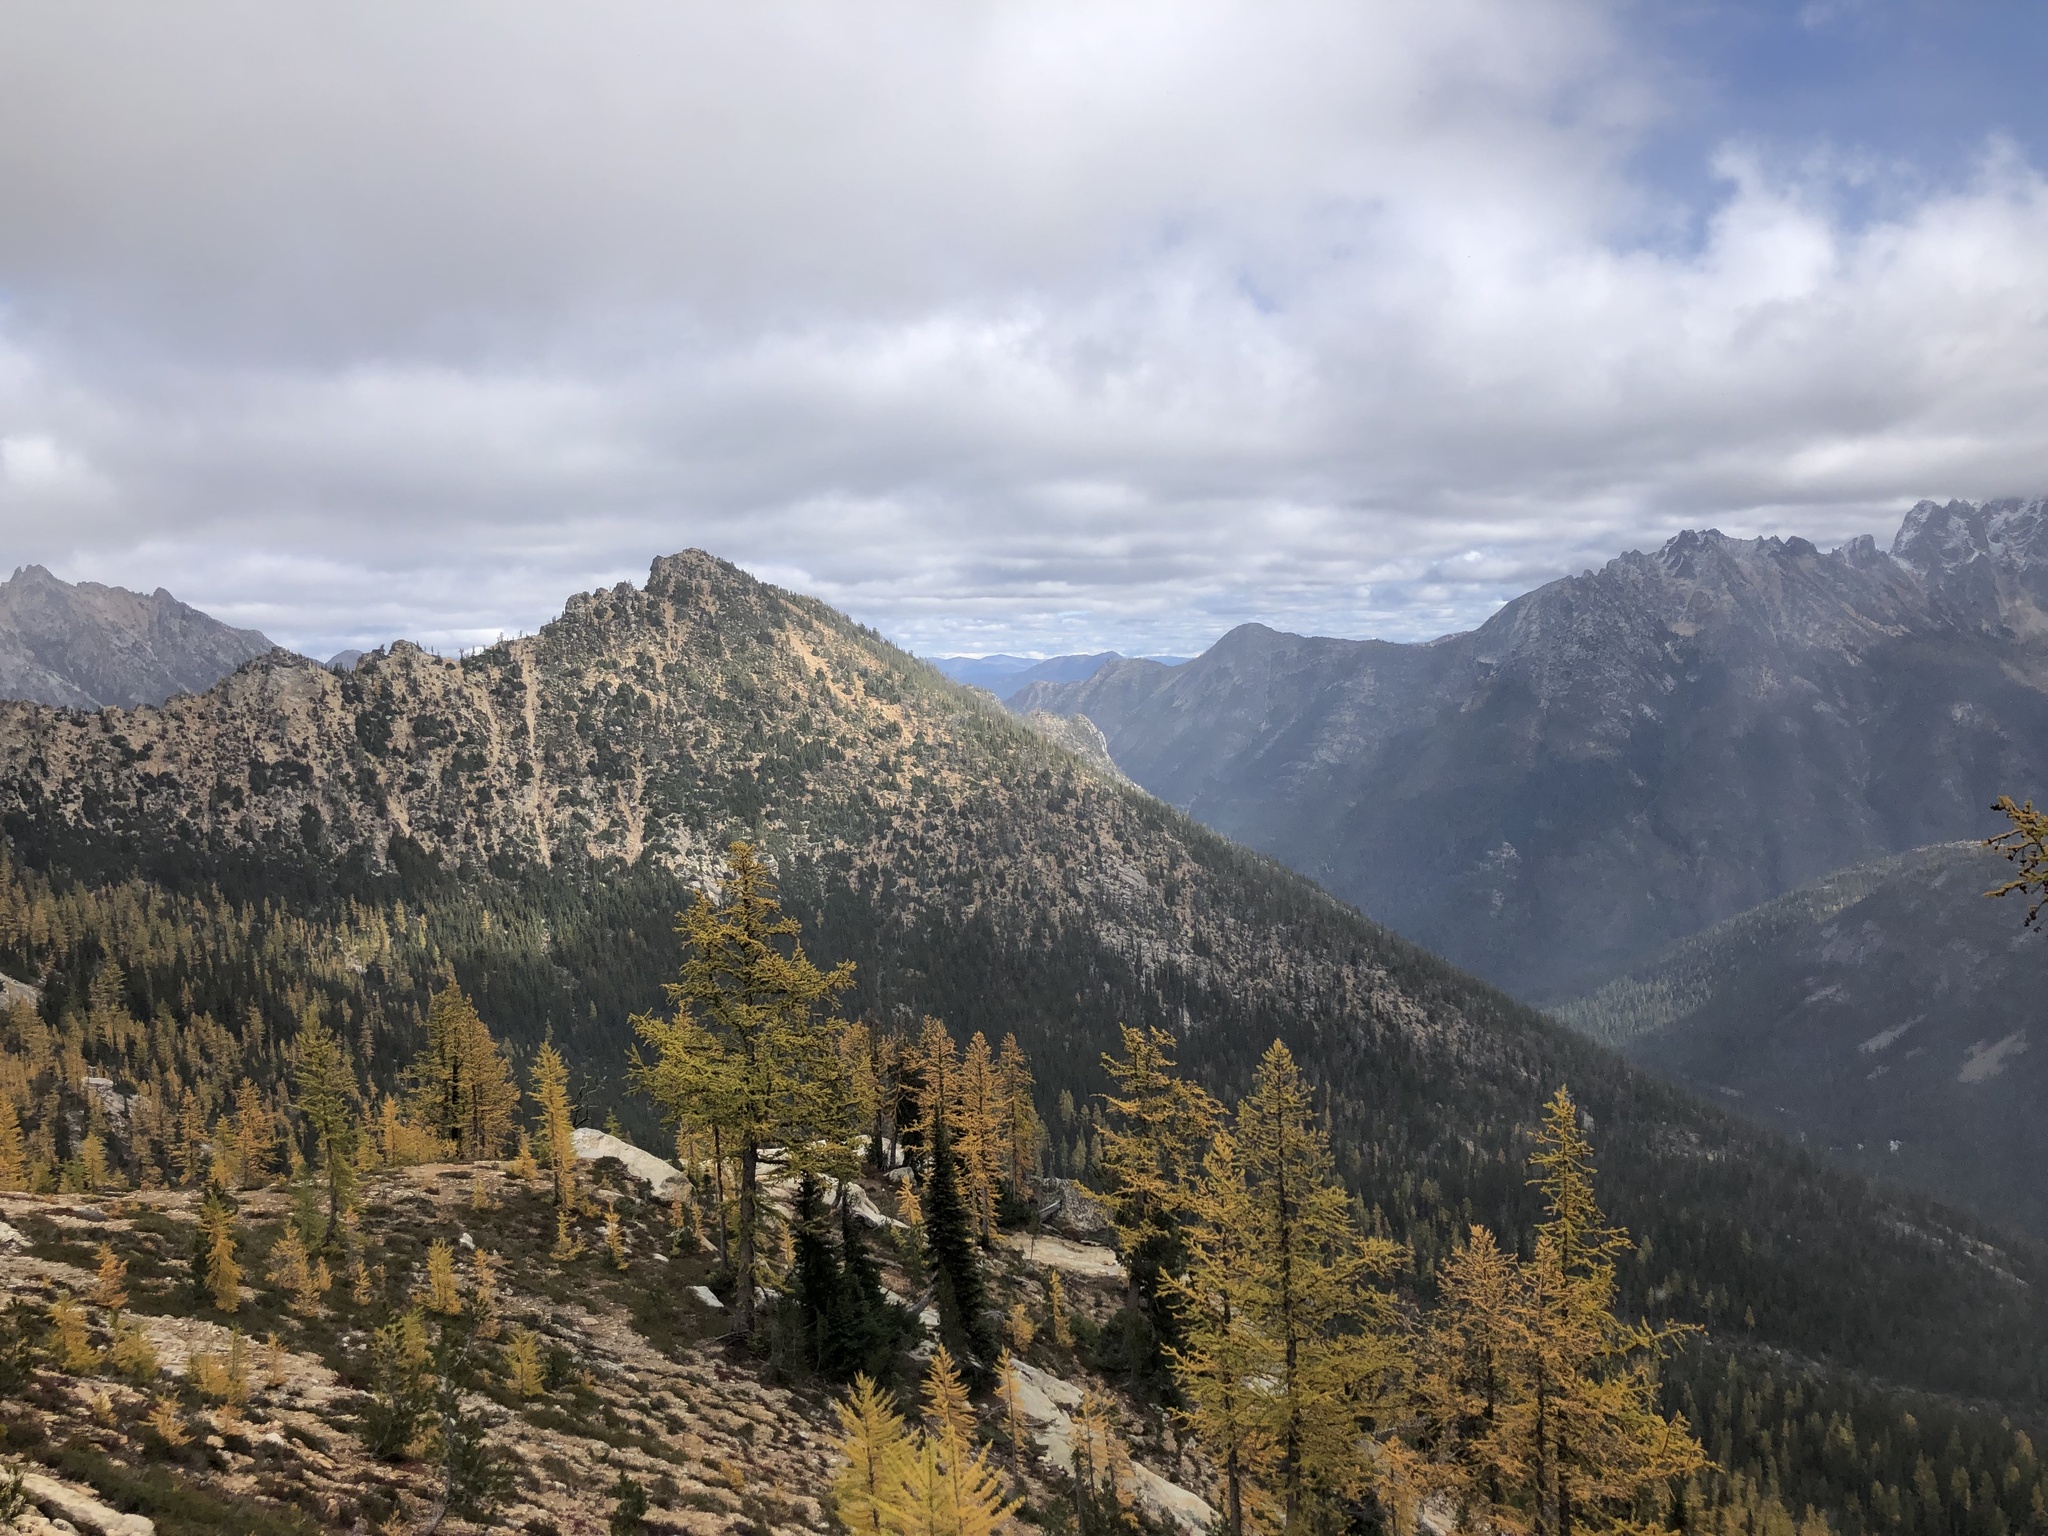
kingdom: Plantae
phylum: Tracheophyta
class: Pinopsida
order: Pinales
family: Pinaceae
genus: Larix
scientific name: Larix lyallii
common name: Alpine larch
